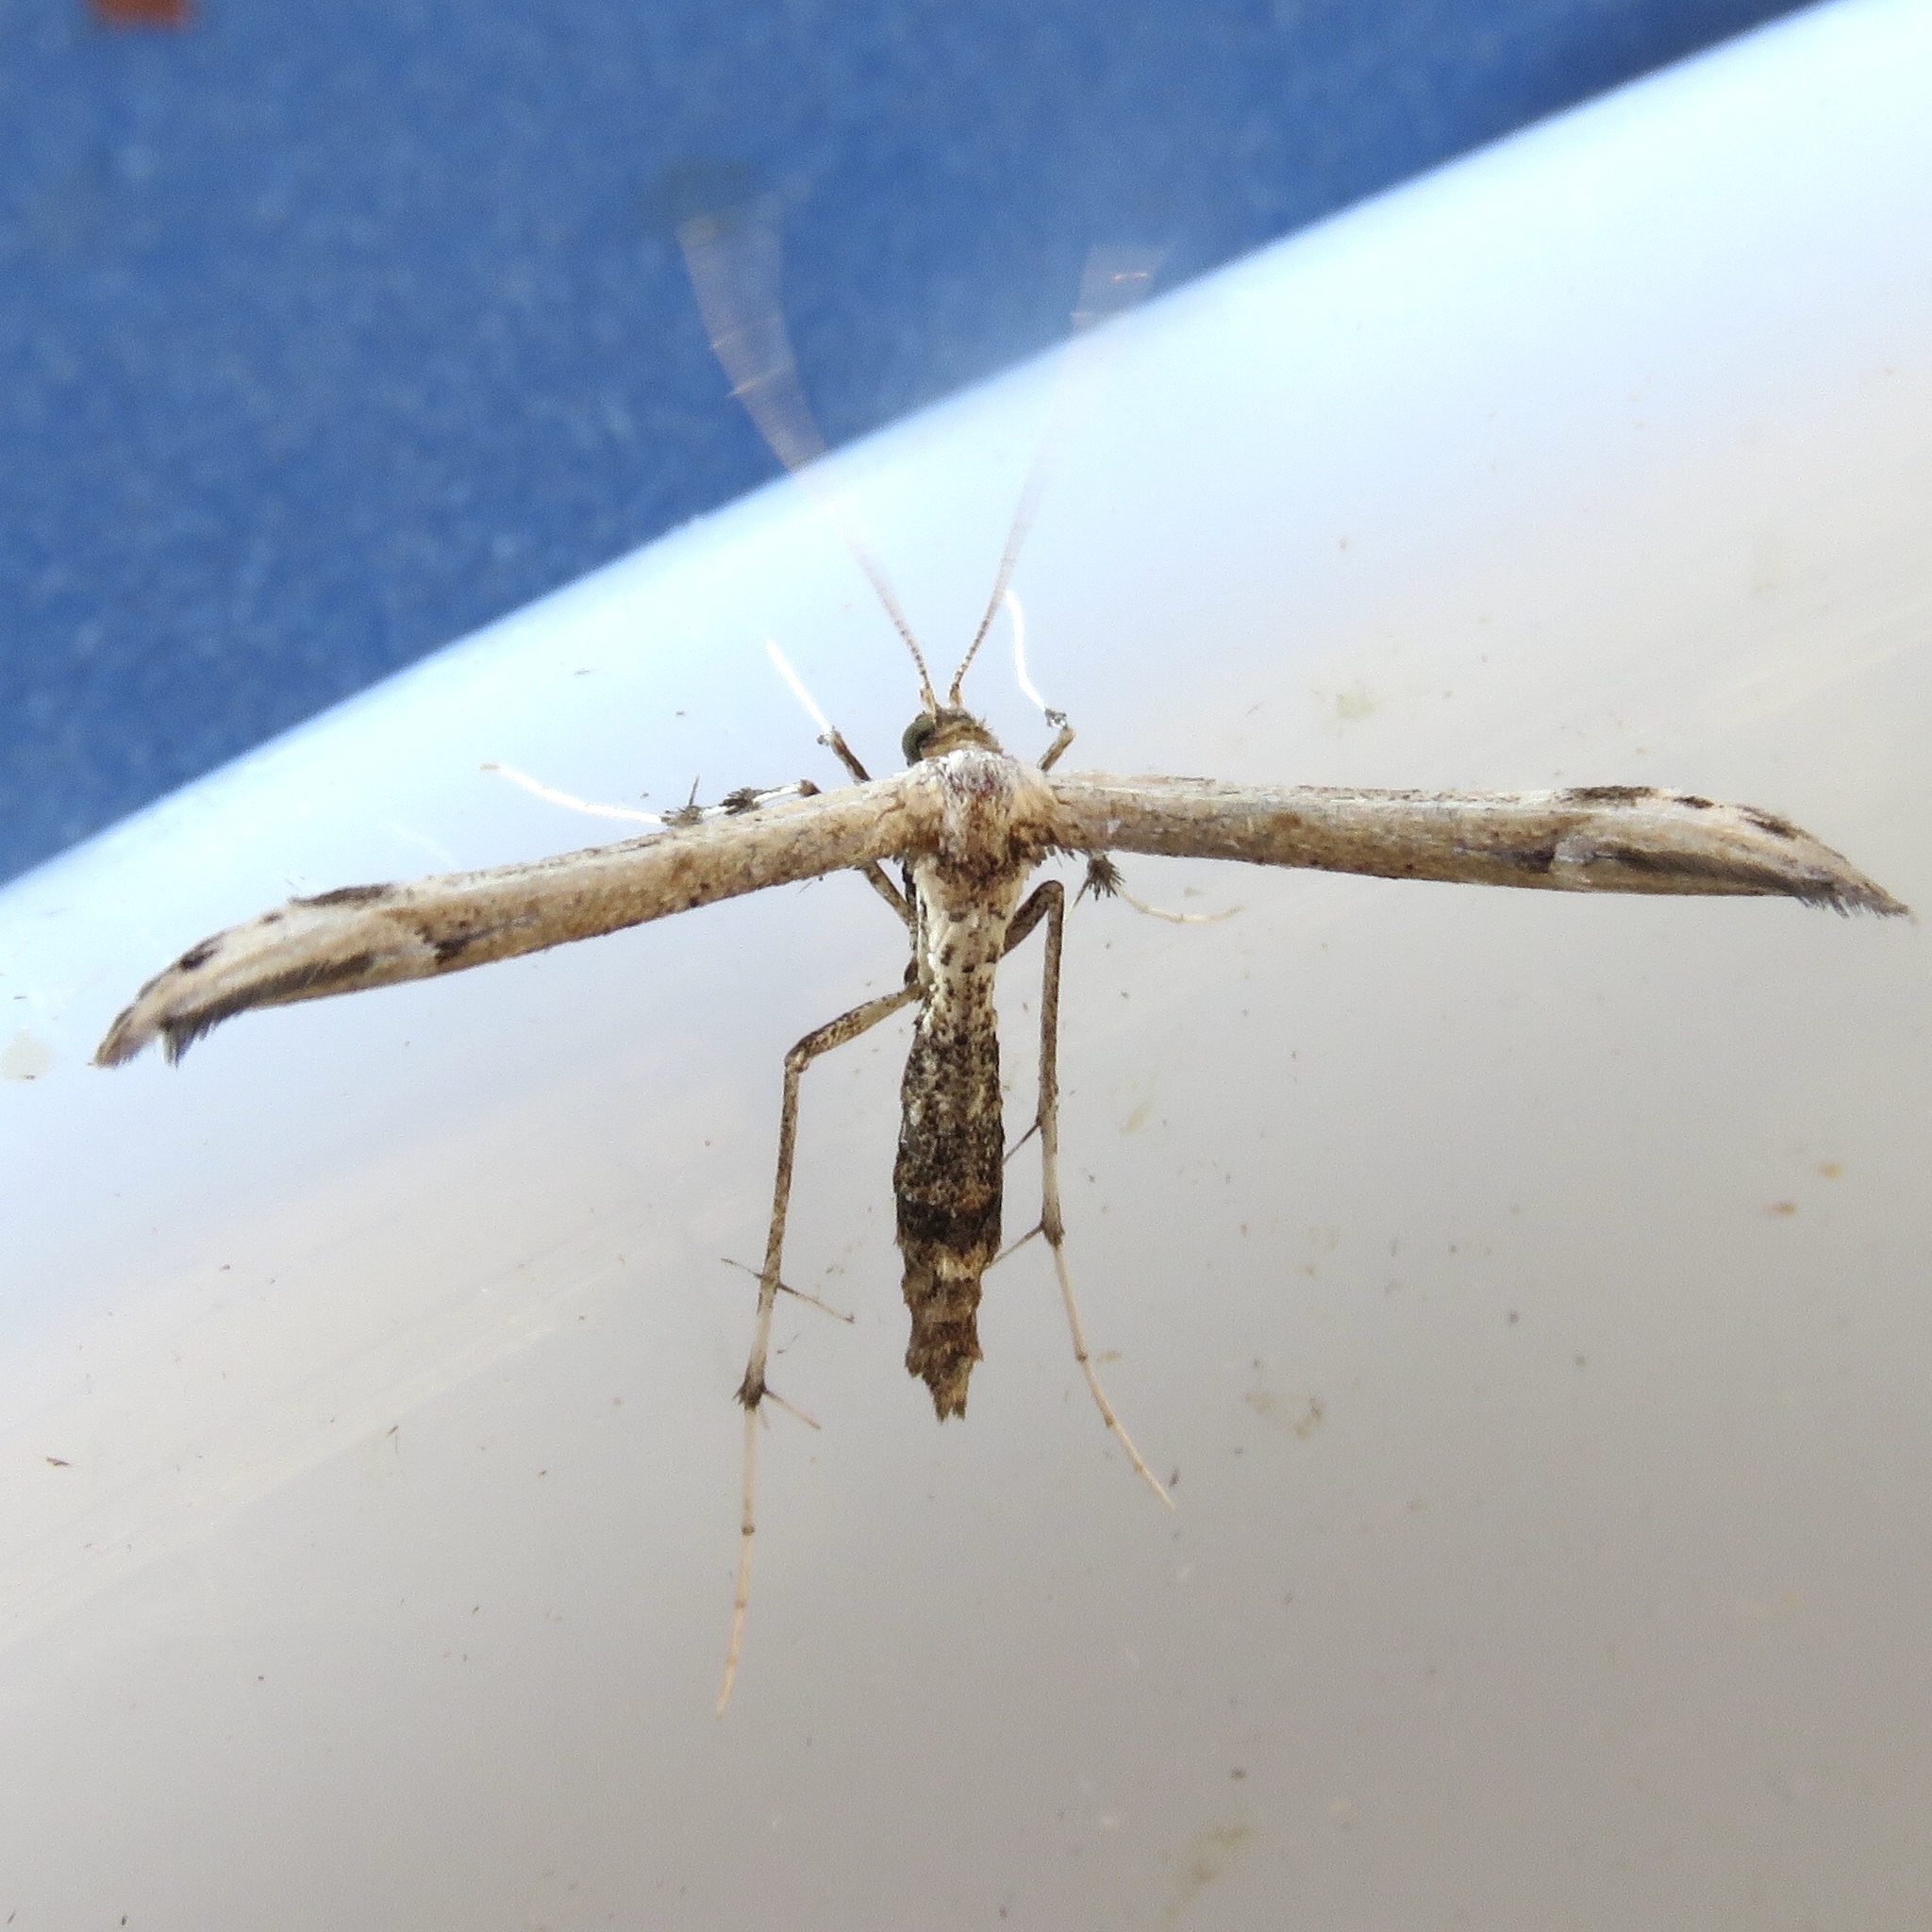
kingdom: Animalia
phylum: Arthropoda
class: Insecta
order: Lepidoptera
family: Pterophoridae
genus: Oidaematophorus
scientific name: Oidaematophorus eupatorii
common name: Eupatorium plume moth
